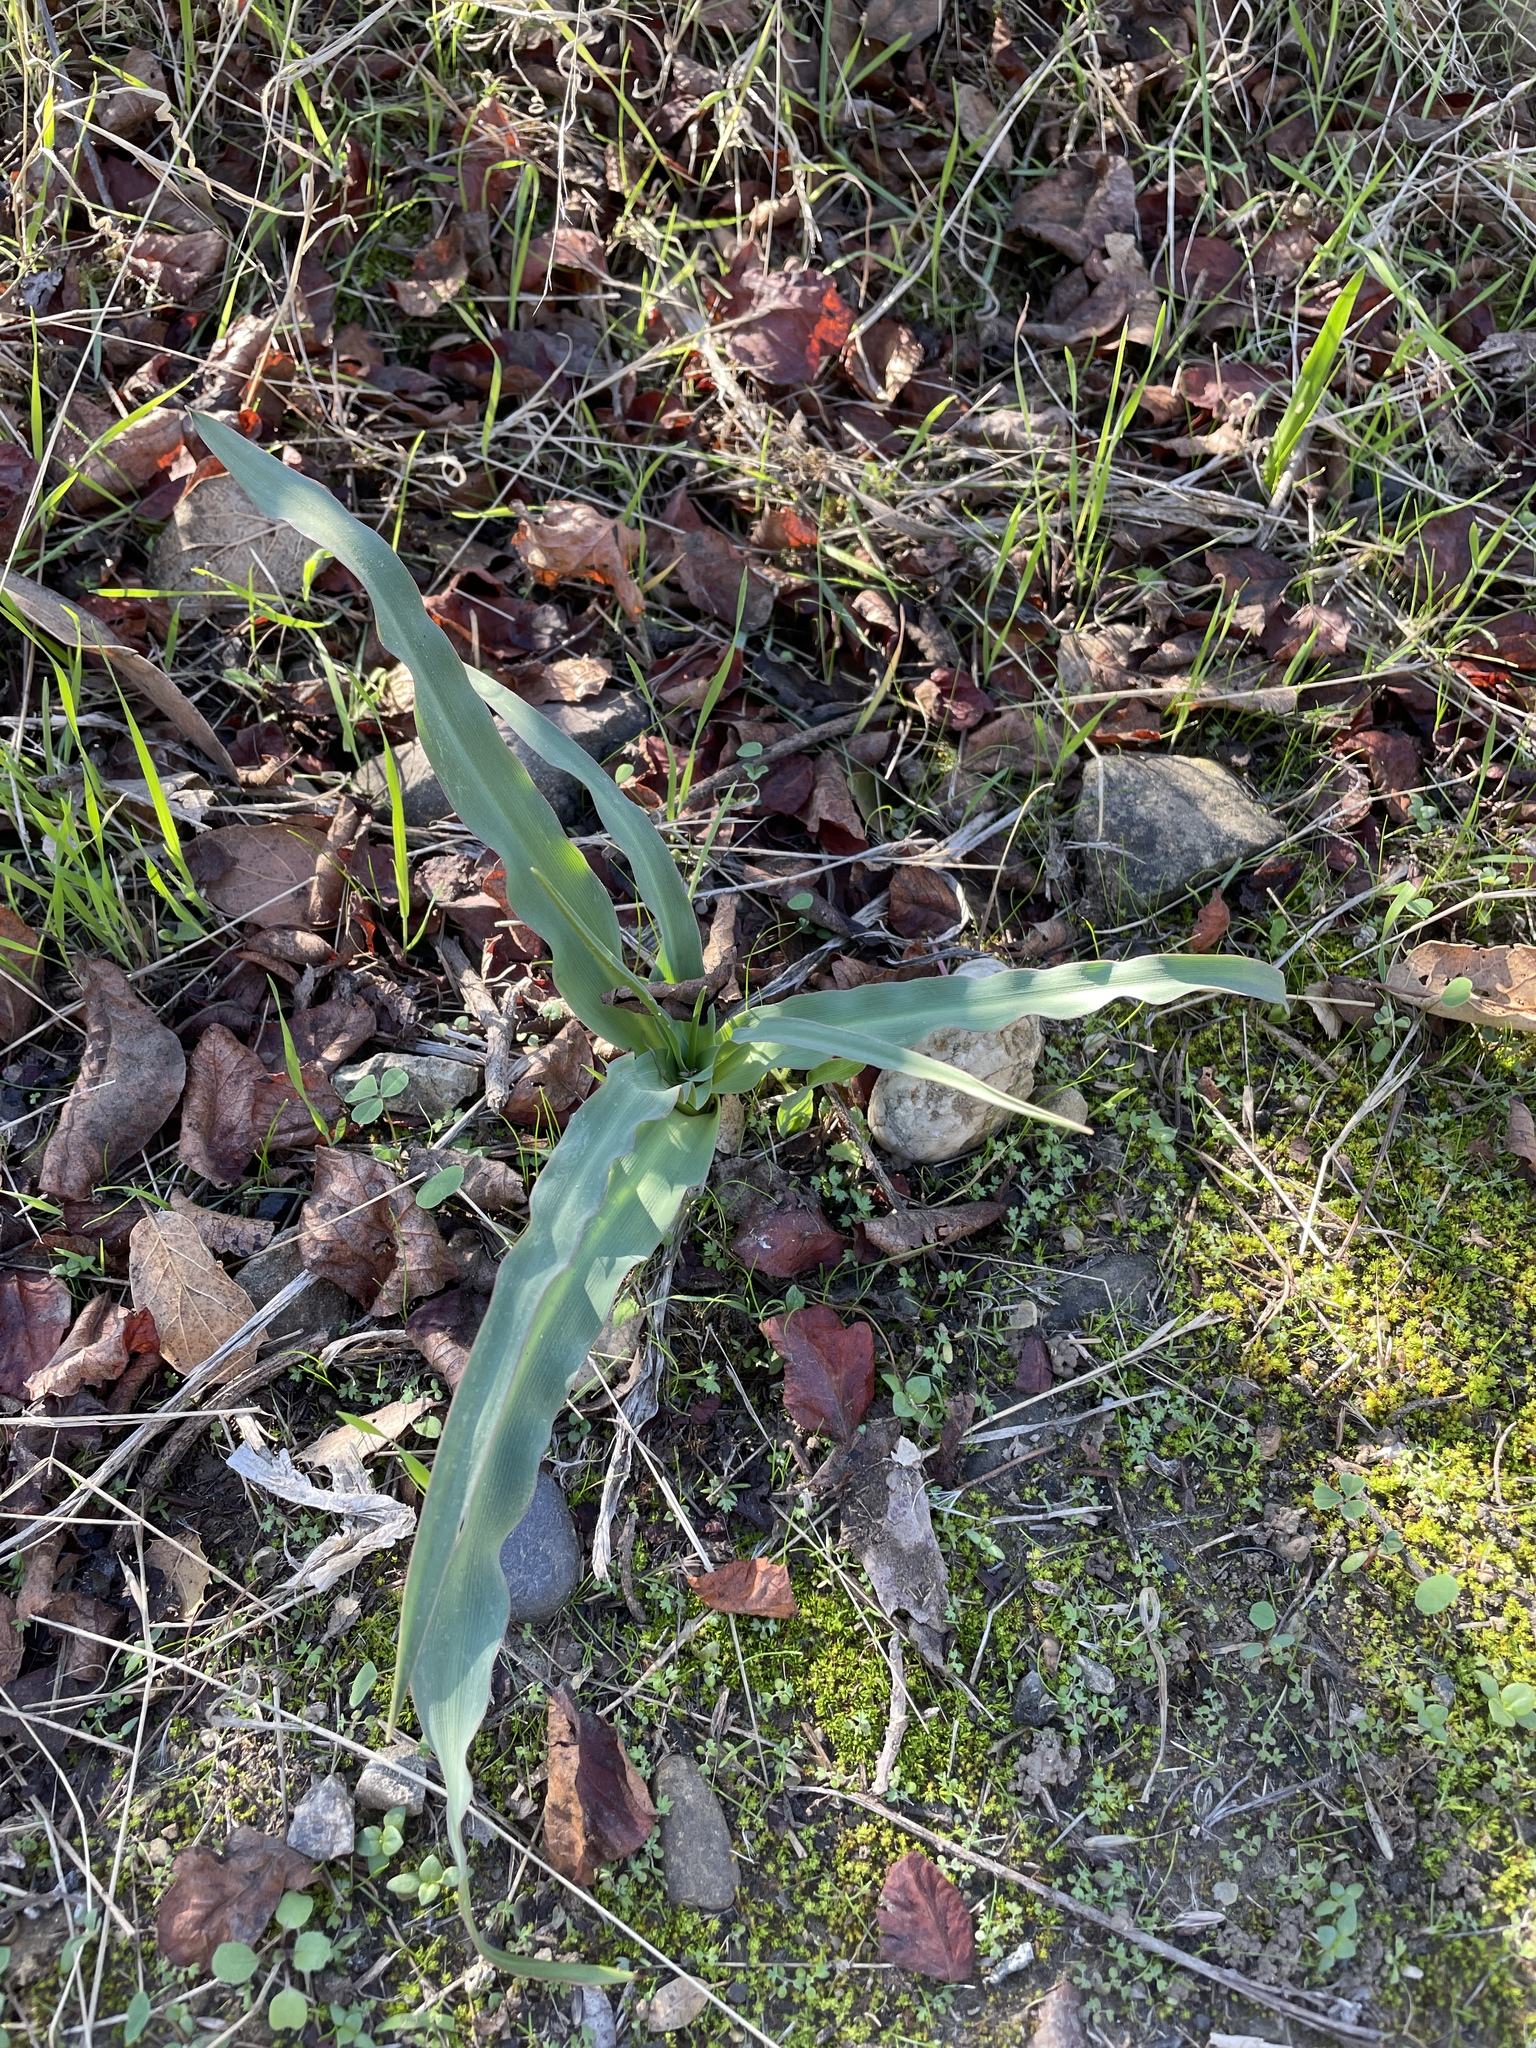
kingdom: Plantae
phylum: Tracheophyta
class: Liliopsida
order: Asparagales
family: Asparagaceae
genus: Chlorogalum
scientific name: Chlorogalum pomeridianum
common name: Amole
